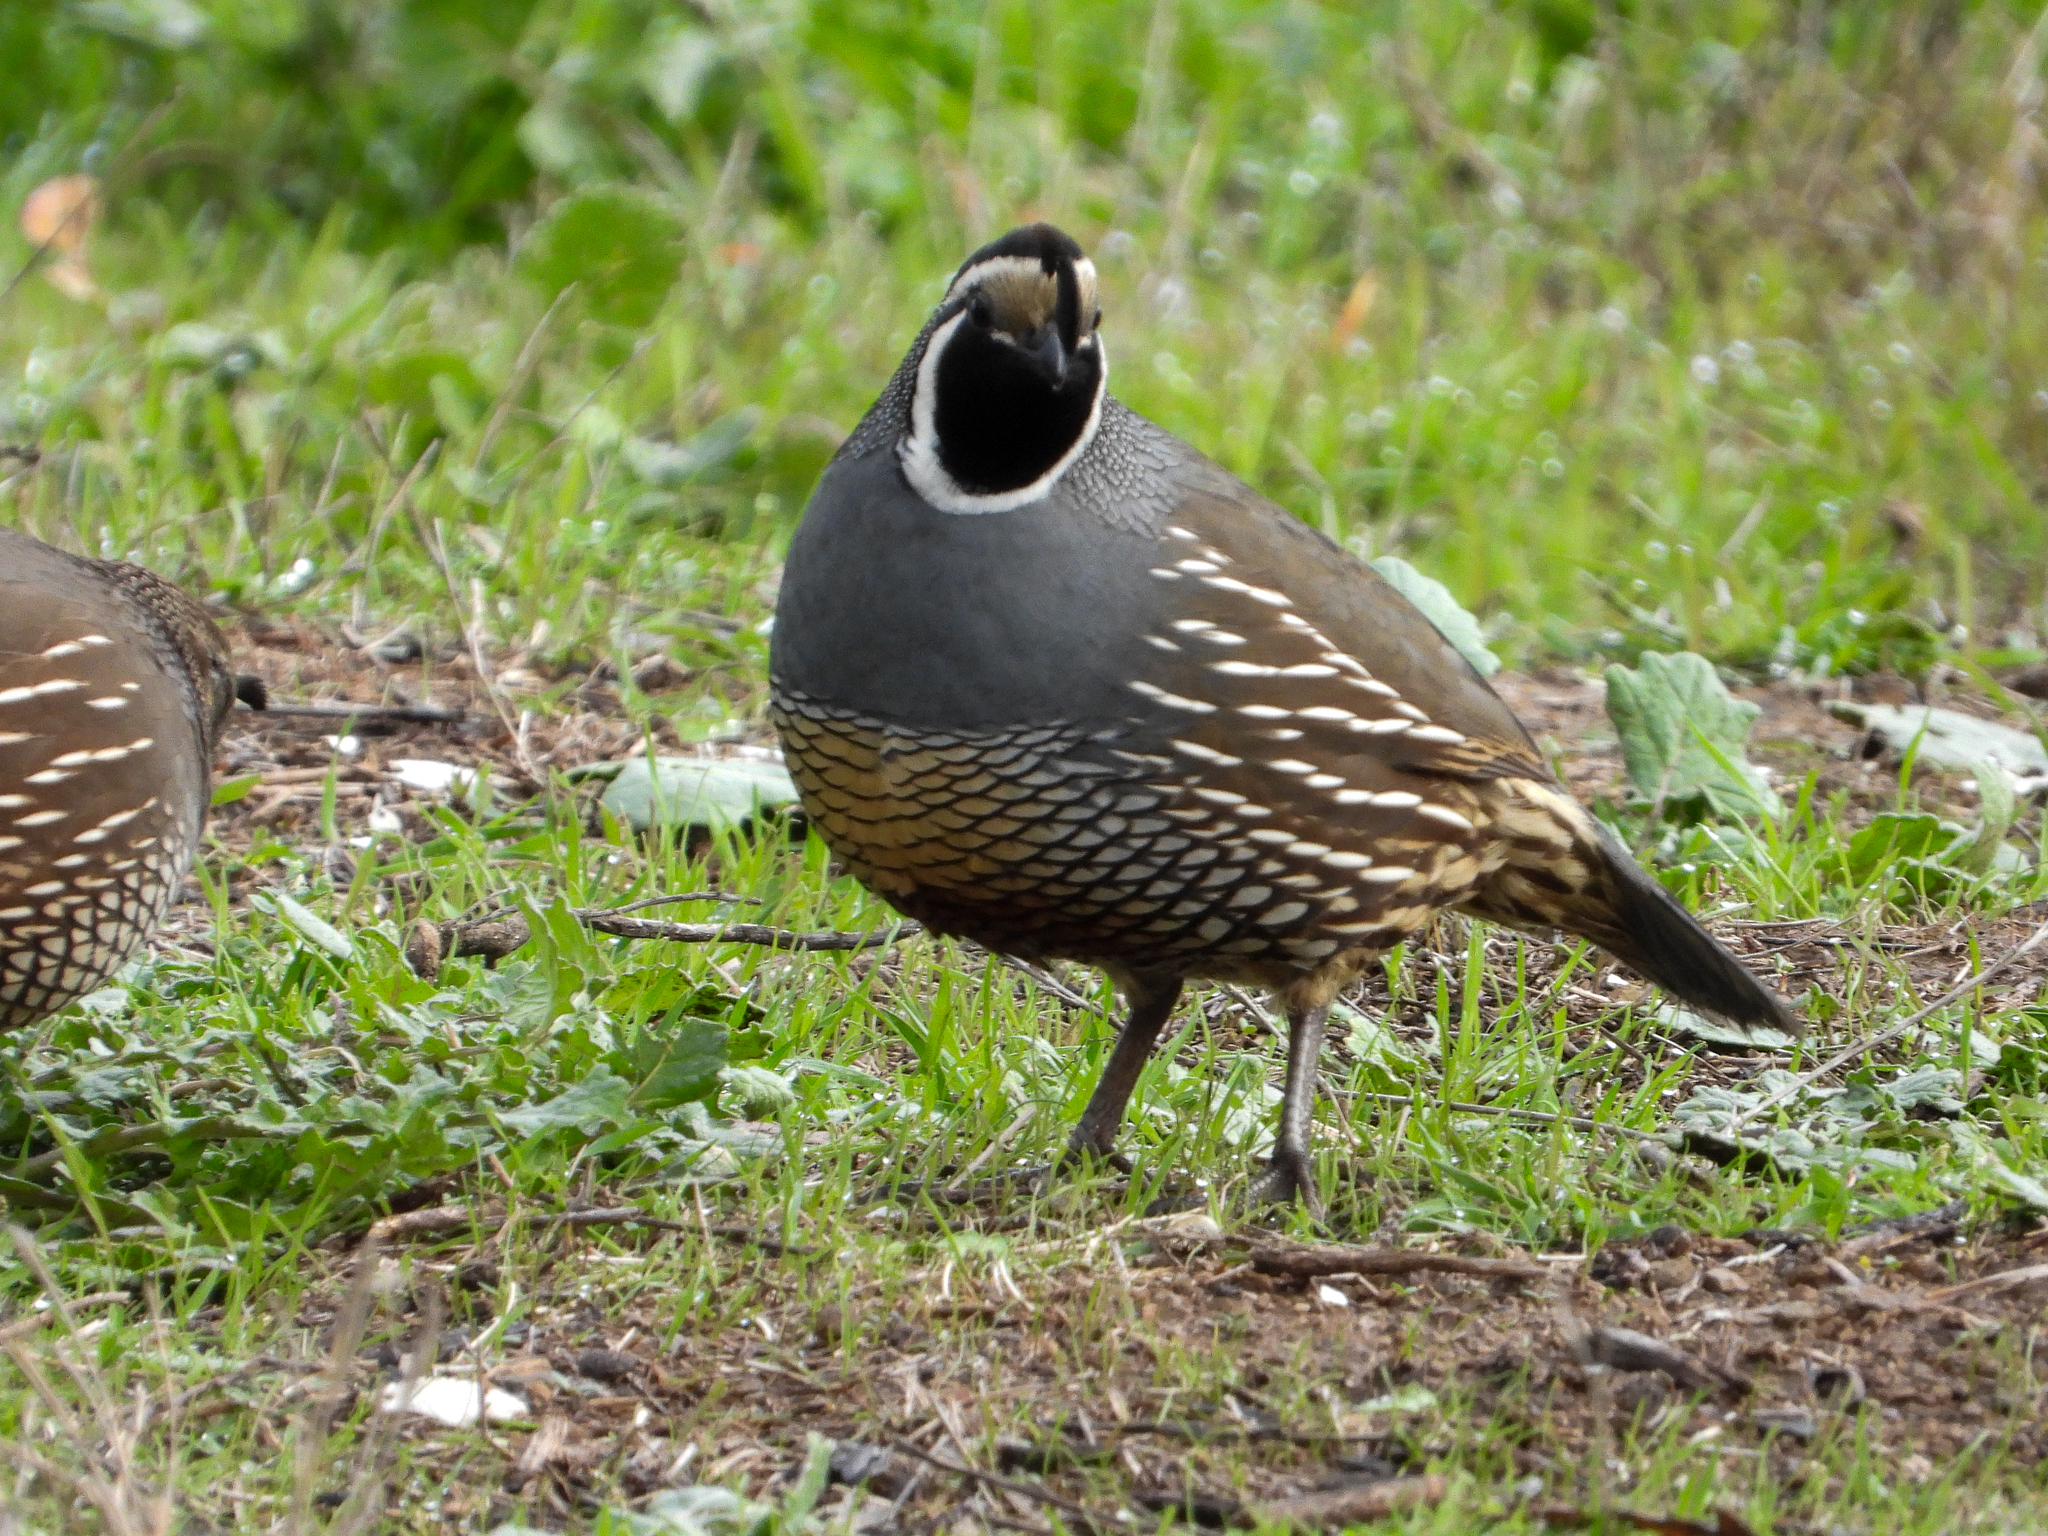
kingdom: Animalia
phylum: Chordata
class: Aves
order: Galliformes
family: Odontophoridae
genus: Callipepla
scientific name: Callipepla californica
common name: California quail
